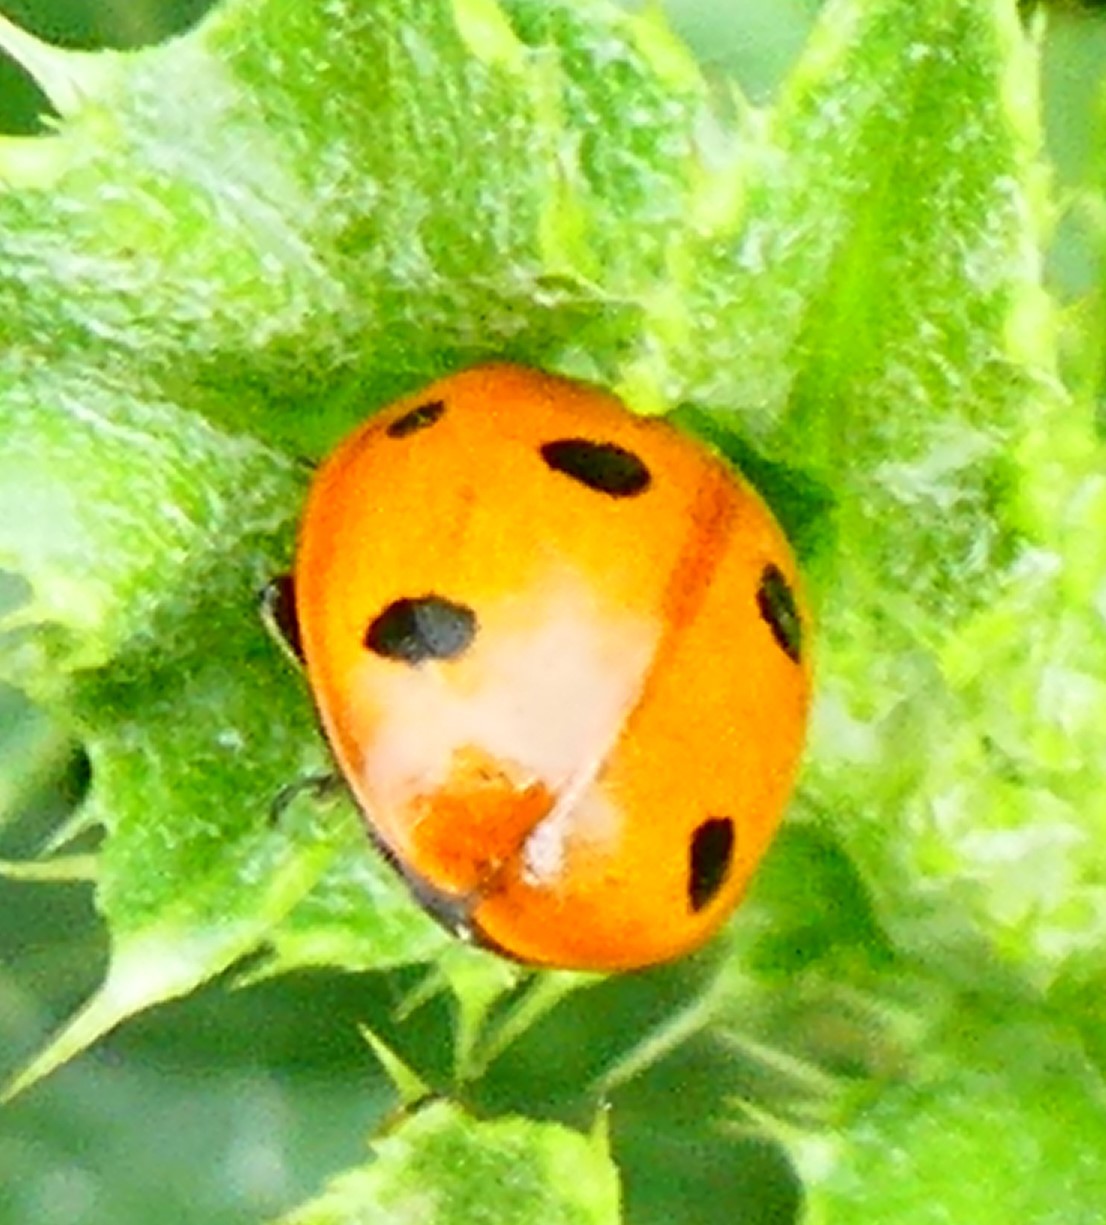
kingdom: Animalia
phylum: Arthropoda
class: Insecta
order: Coleoptera
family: Coccinellidae
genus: Coccinella
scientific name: Coccinella septempunctata
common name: Sevenspotted lady beetle
